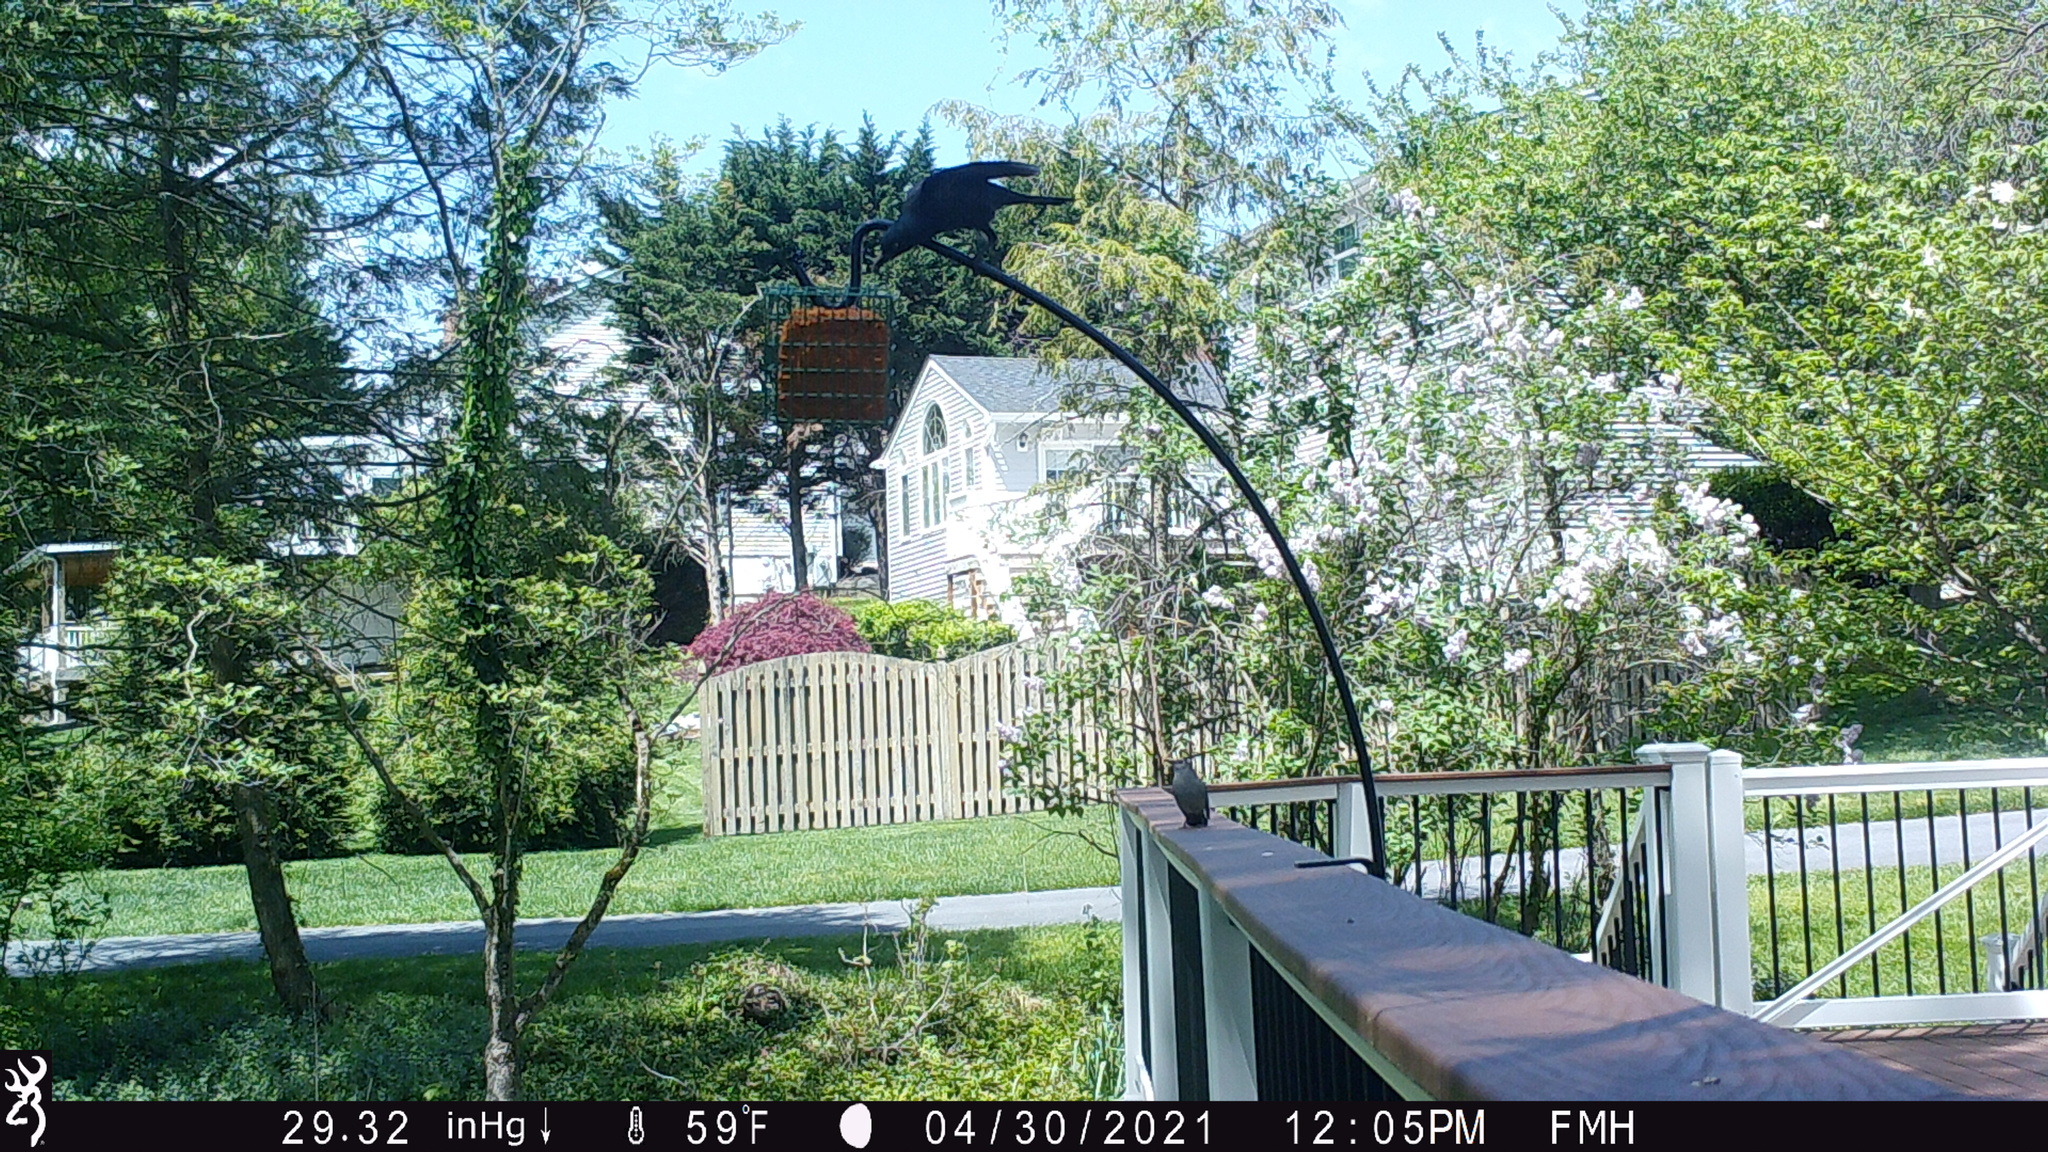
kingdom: Animalia
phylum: Chordata
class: Aves
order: Passeriformes
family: Mimidae
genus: Dumetella
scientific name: Dumetella carolinensis
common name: Gray catbird
